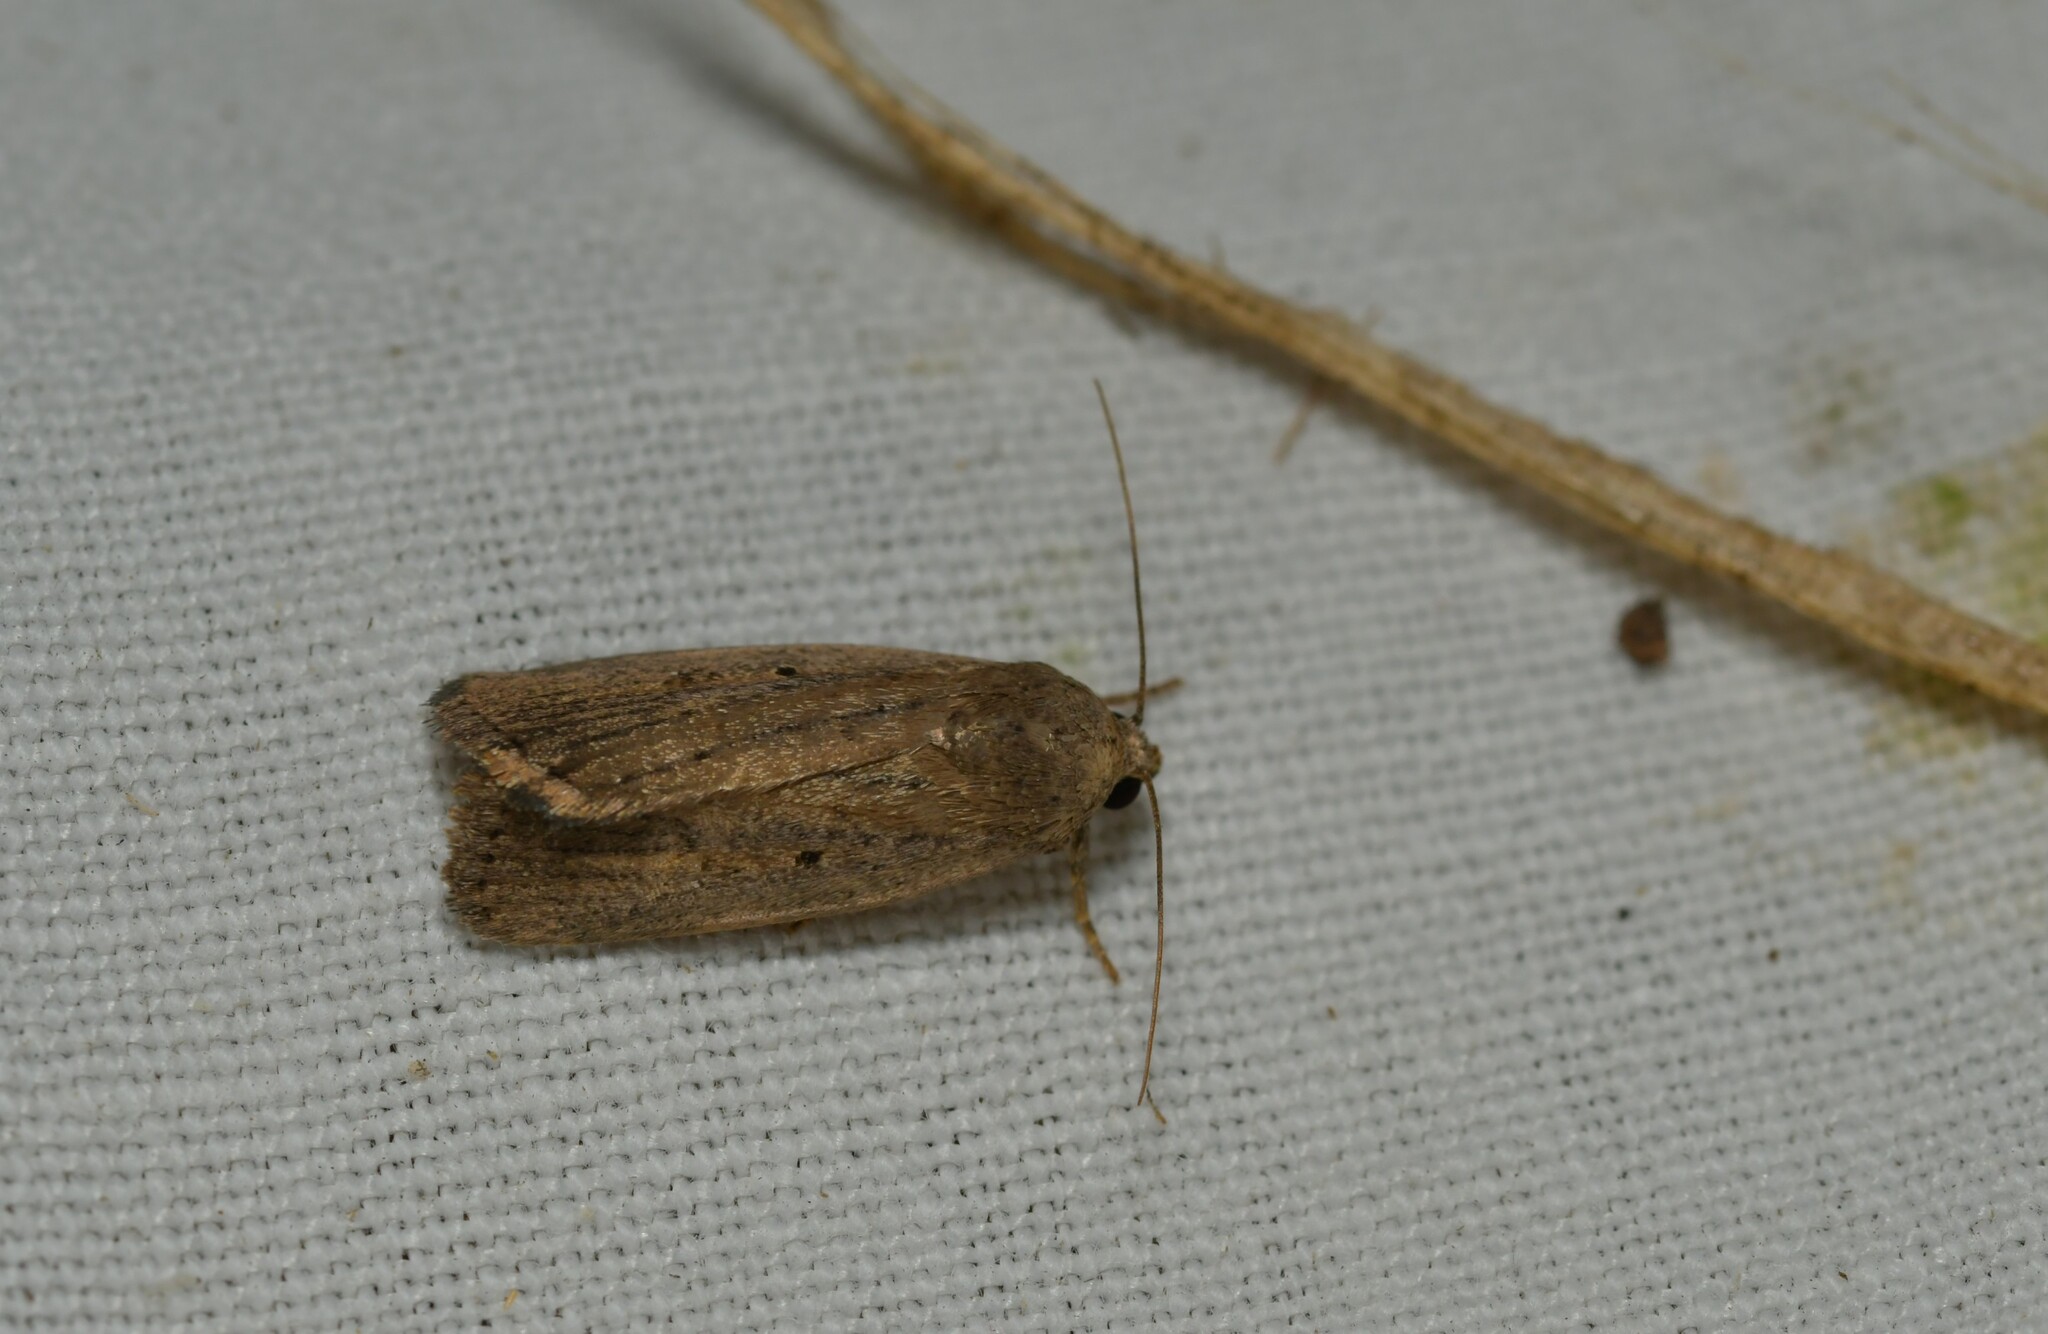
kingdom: Animalia
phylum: Arthropoda
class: Insecta
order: Lepidoptera
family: Noctuidae
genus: Athetis
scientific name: Athetis hospes
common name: Porter's rustic
